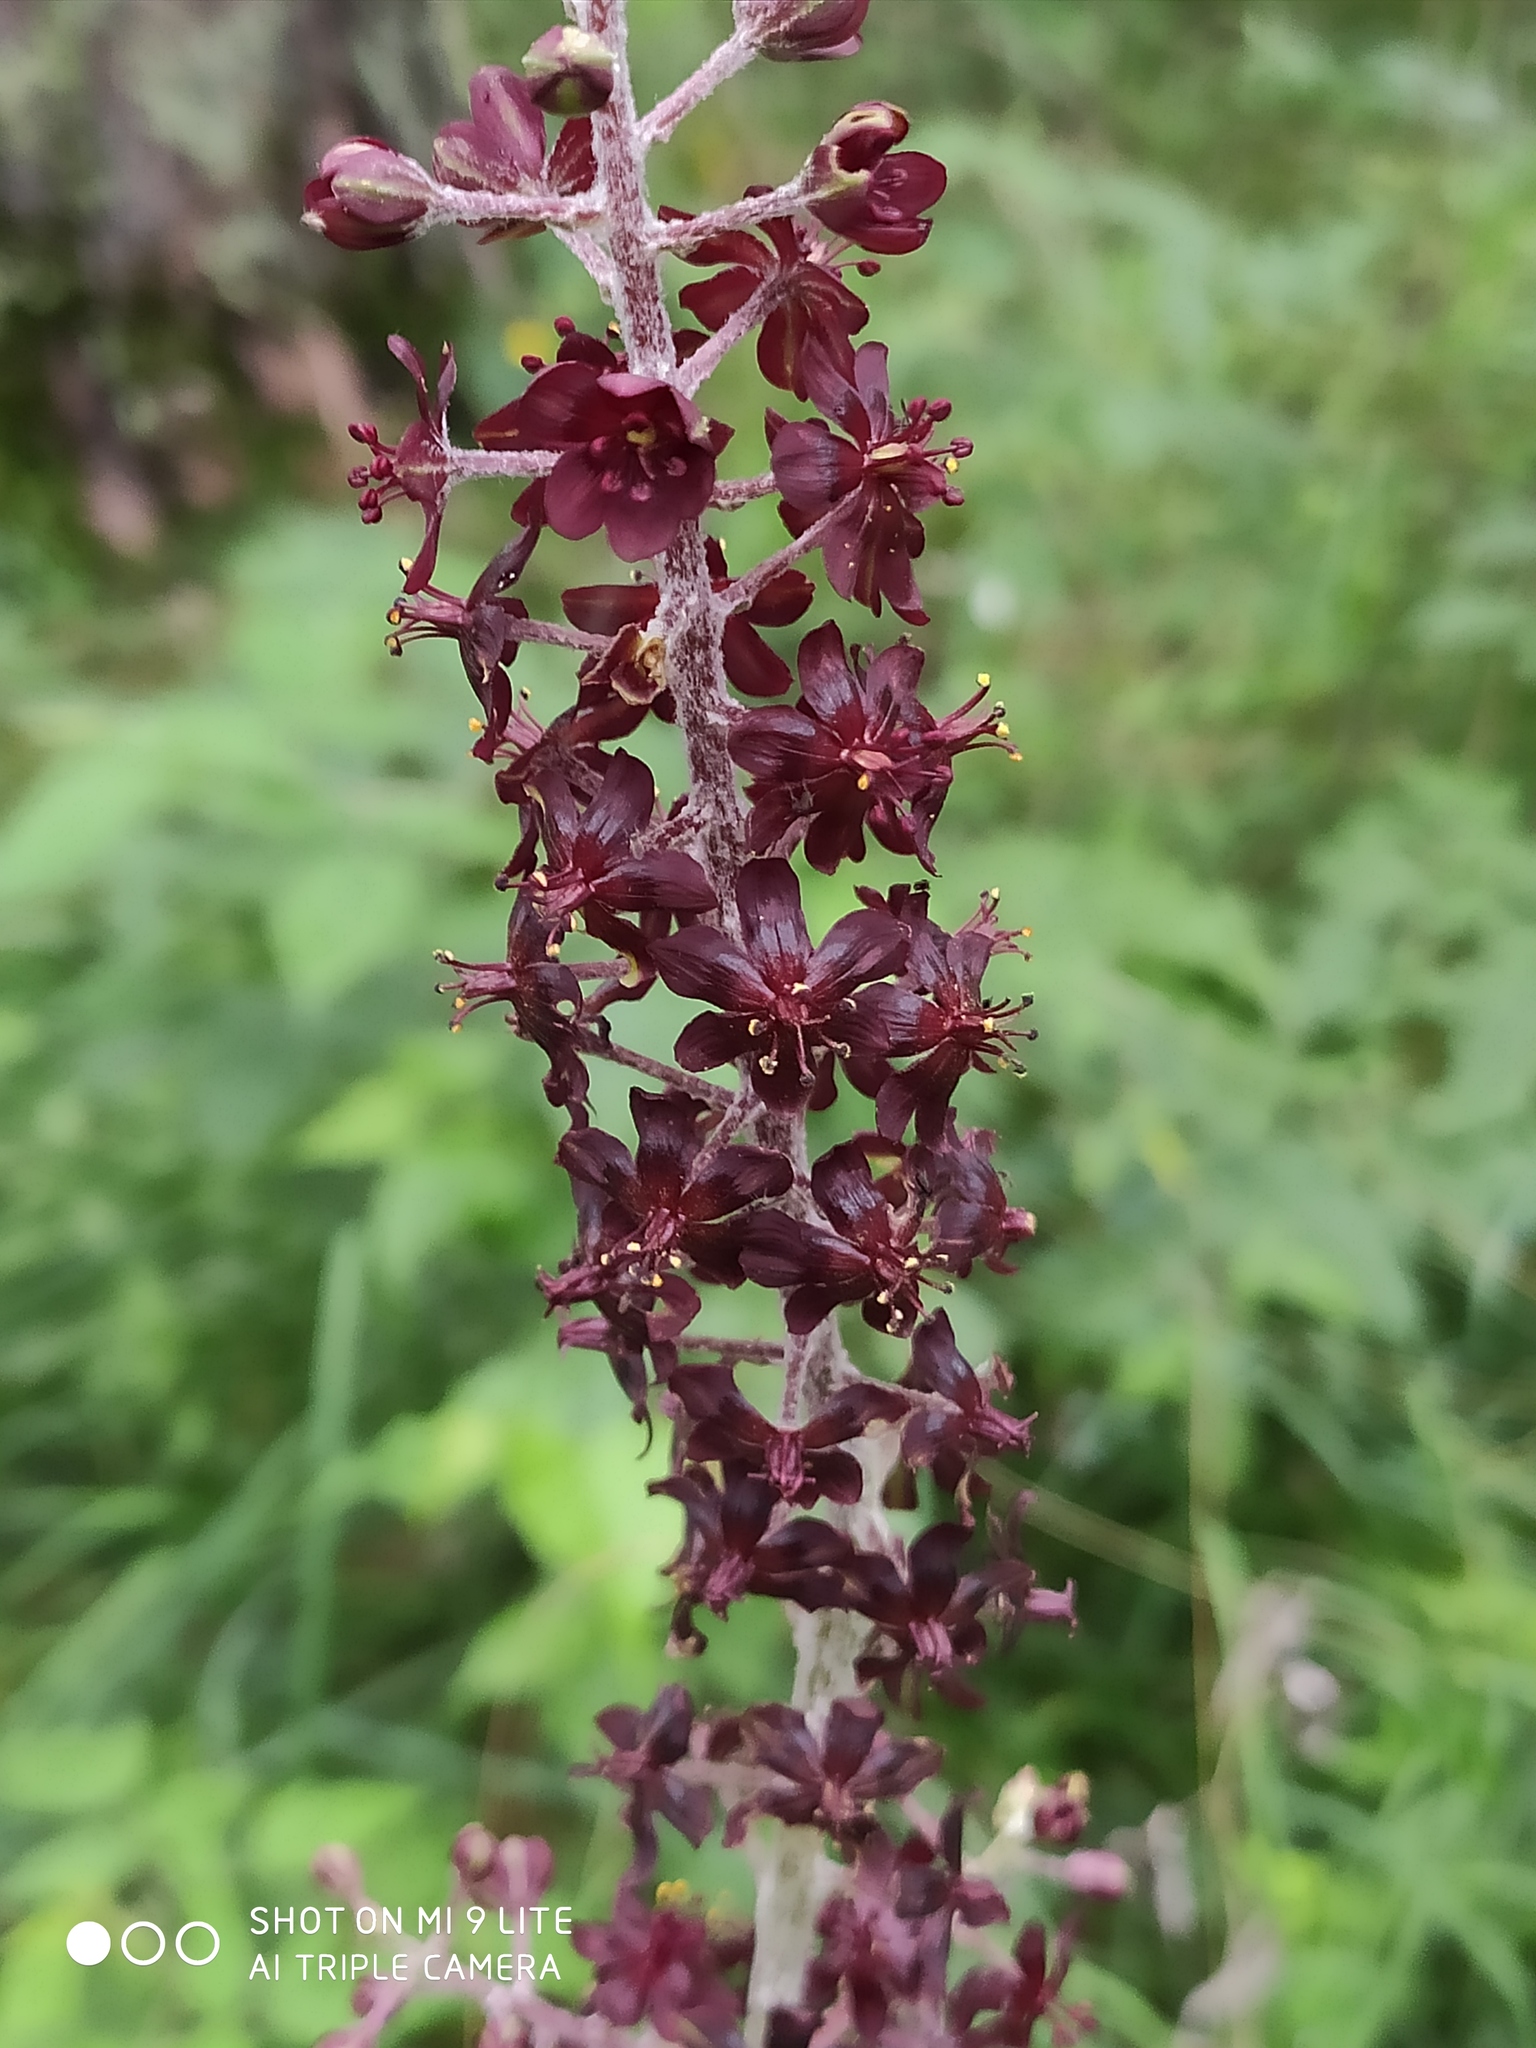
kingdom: Plantae
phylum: Tracheophyta
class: Liliopsida
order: Liliales
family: Melanthiaceae
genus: Veratrum
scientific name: Veratrum nigrum
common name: Black veratrum
